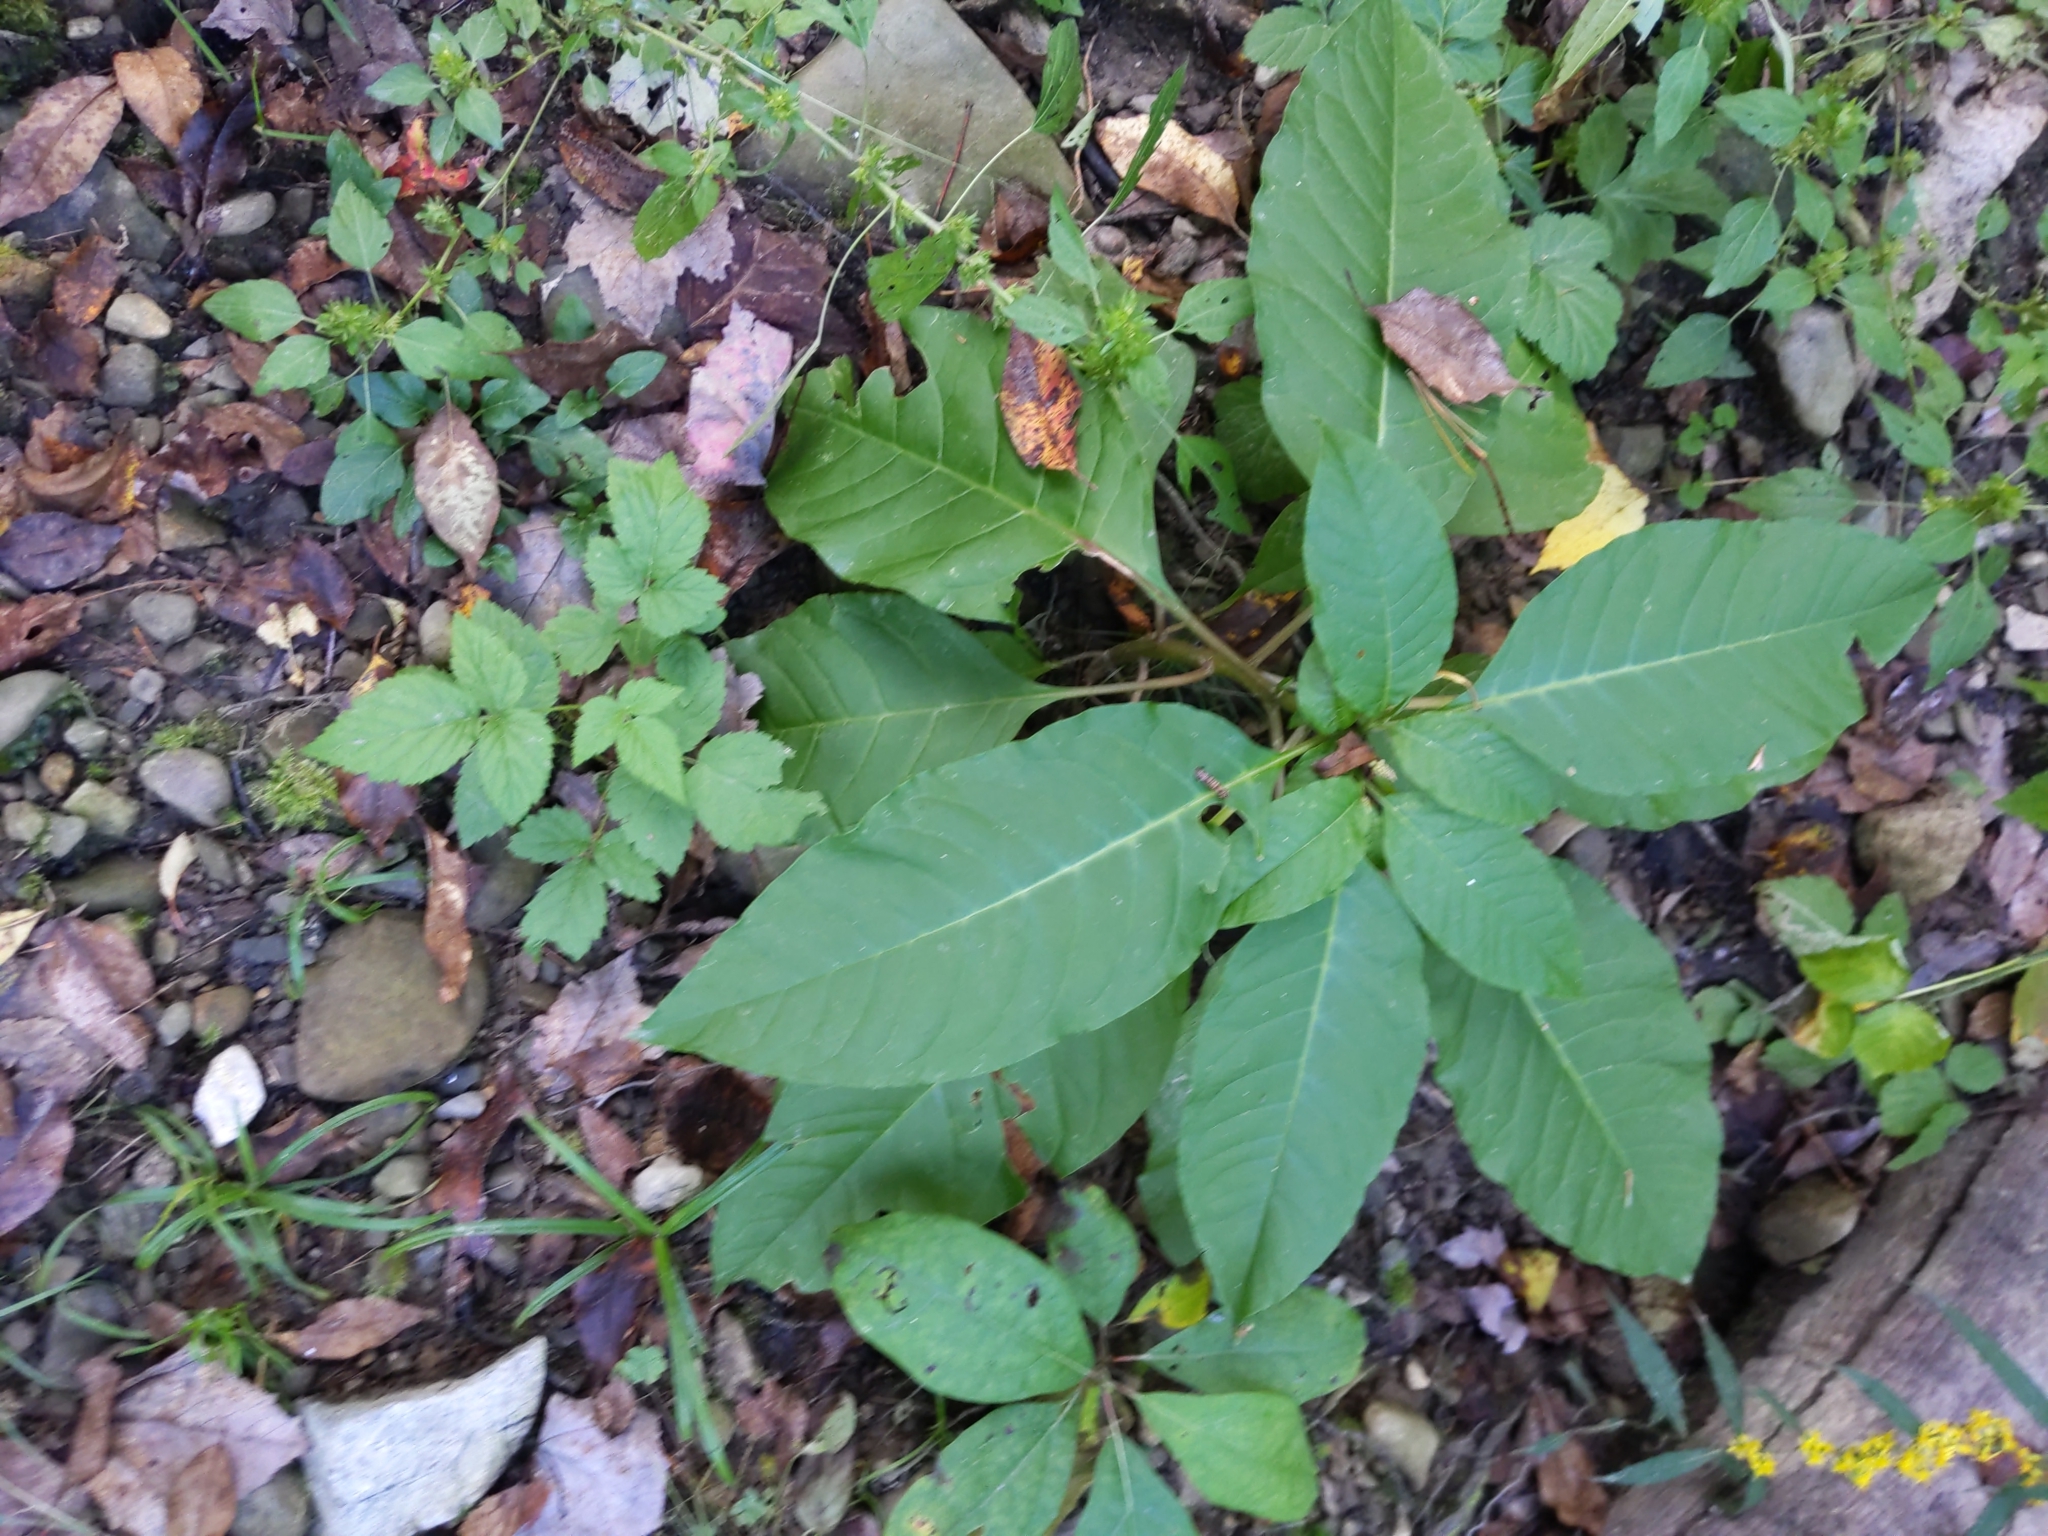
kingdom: Plantae
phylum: Tracheophyta
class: Magnoliopsida
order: Caryophyllales
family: Phytolaccaceae
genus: Phytolacca
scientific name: Phytolacca americana
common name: American pokeweed
